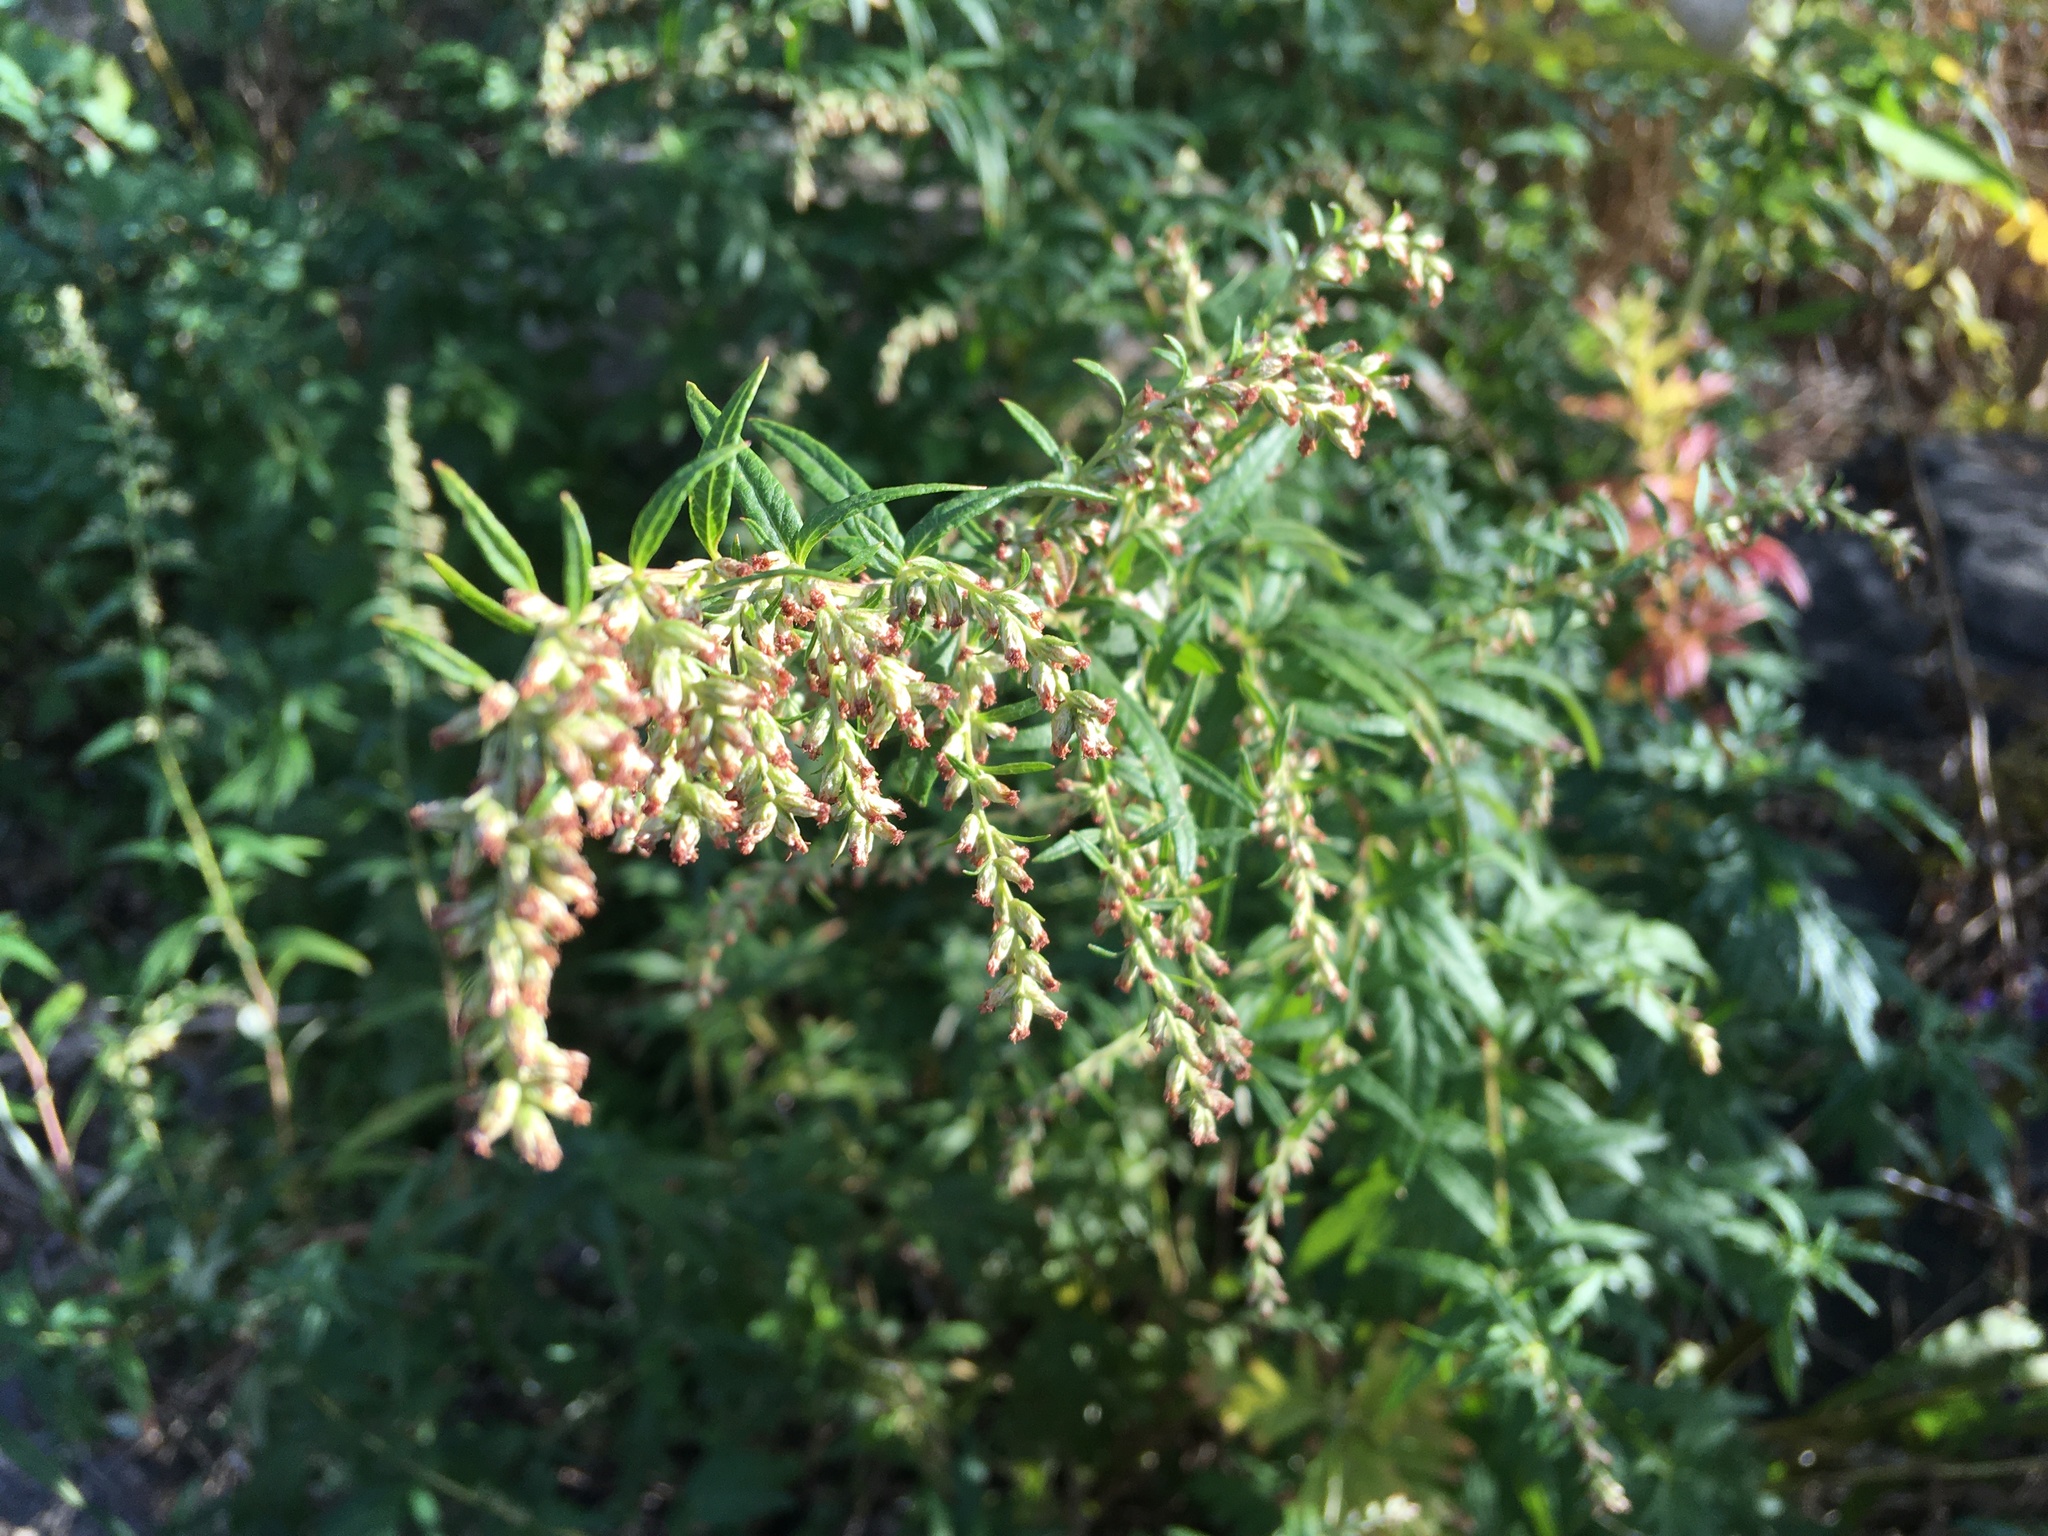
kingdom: Plantae
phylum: Tracheophyta
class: Magnoliopsida
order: Asterales
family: Asteraceae
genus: Artemisia
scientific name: Artemisia vulgaris
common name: Mugwort
